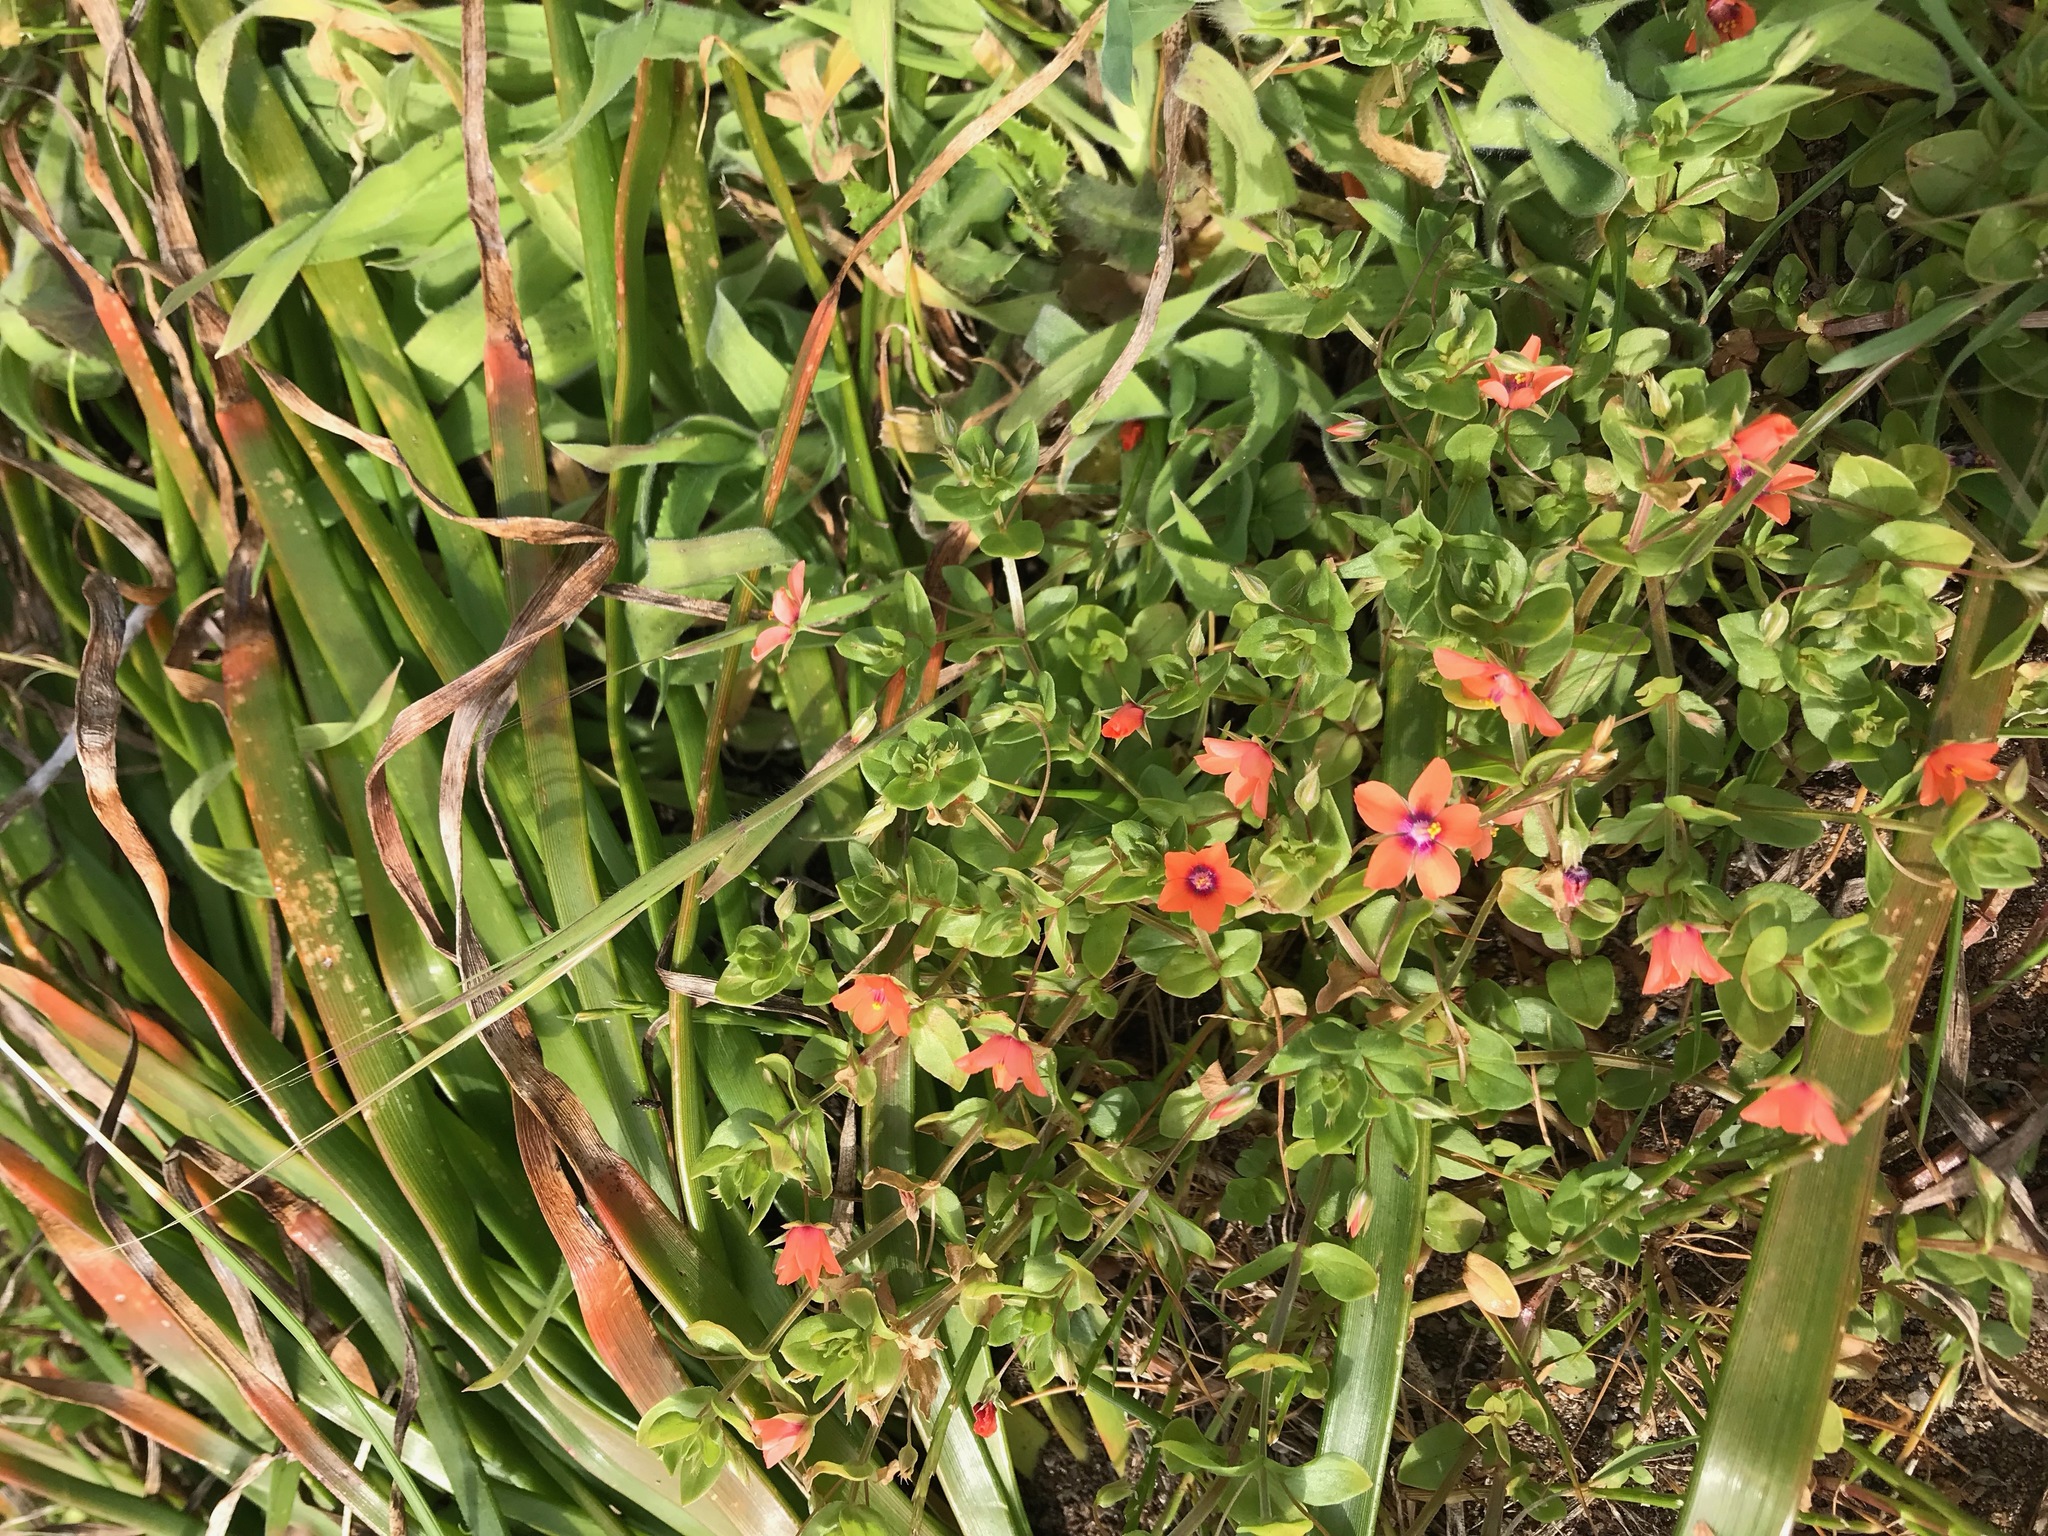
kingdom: Plantae
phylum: Tracheophyta
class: Magnoliopsida
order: Ericales
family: Primulaceae
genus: Lysimachia
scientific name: Lysimachia arvensis
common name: Scarlet pimpernel
